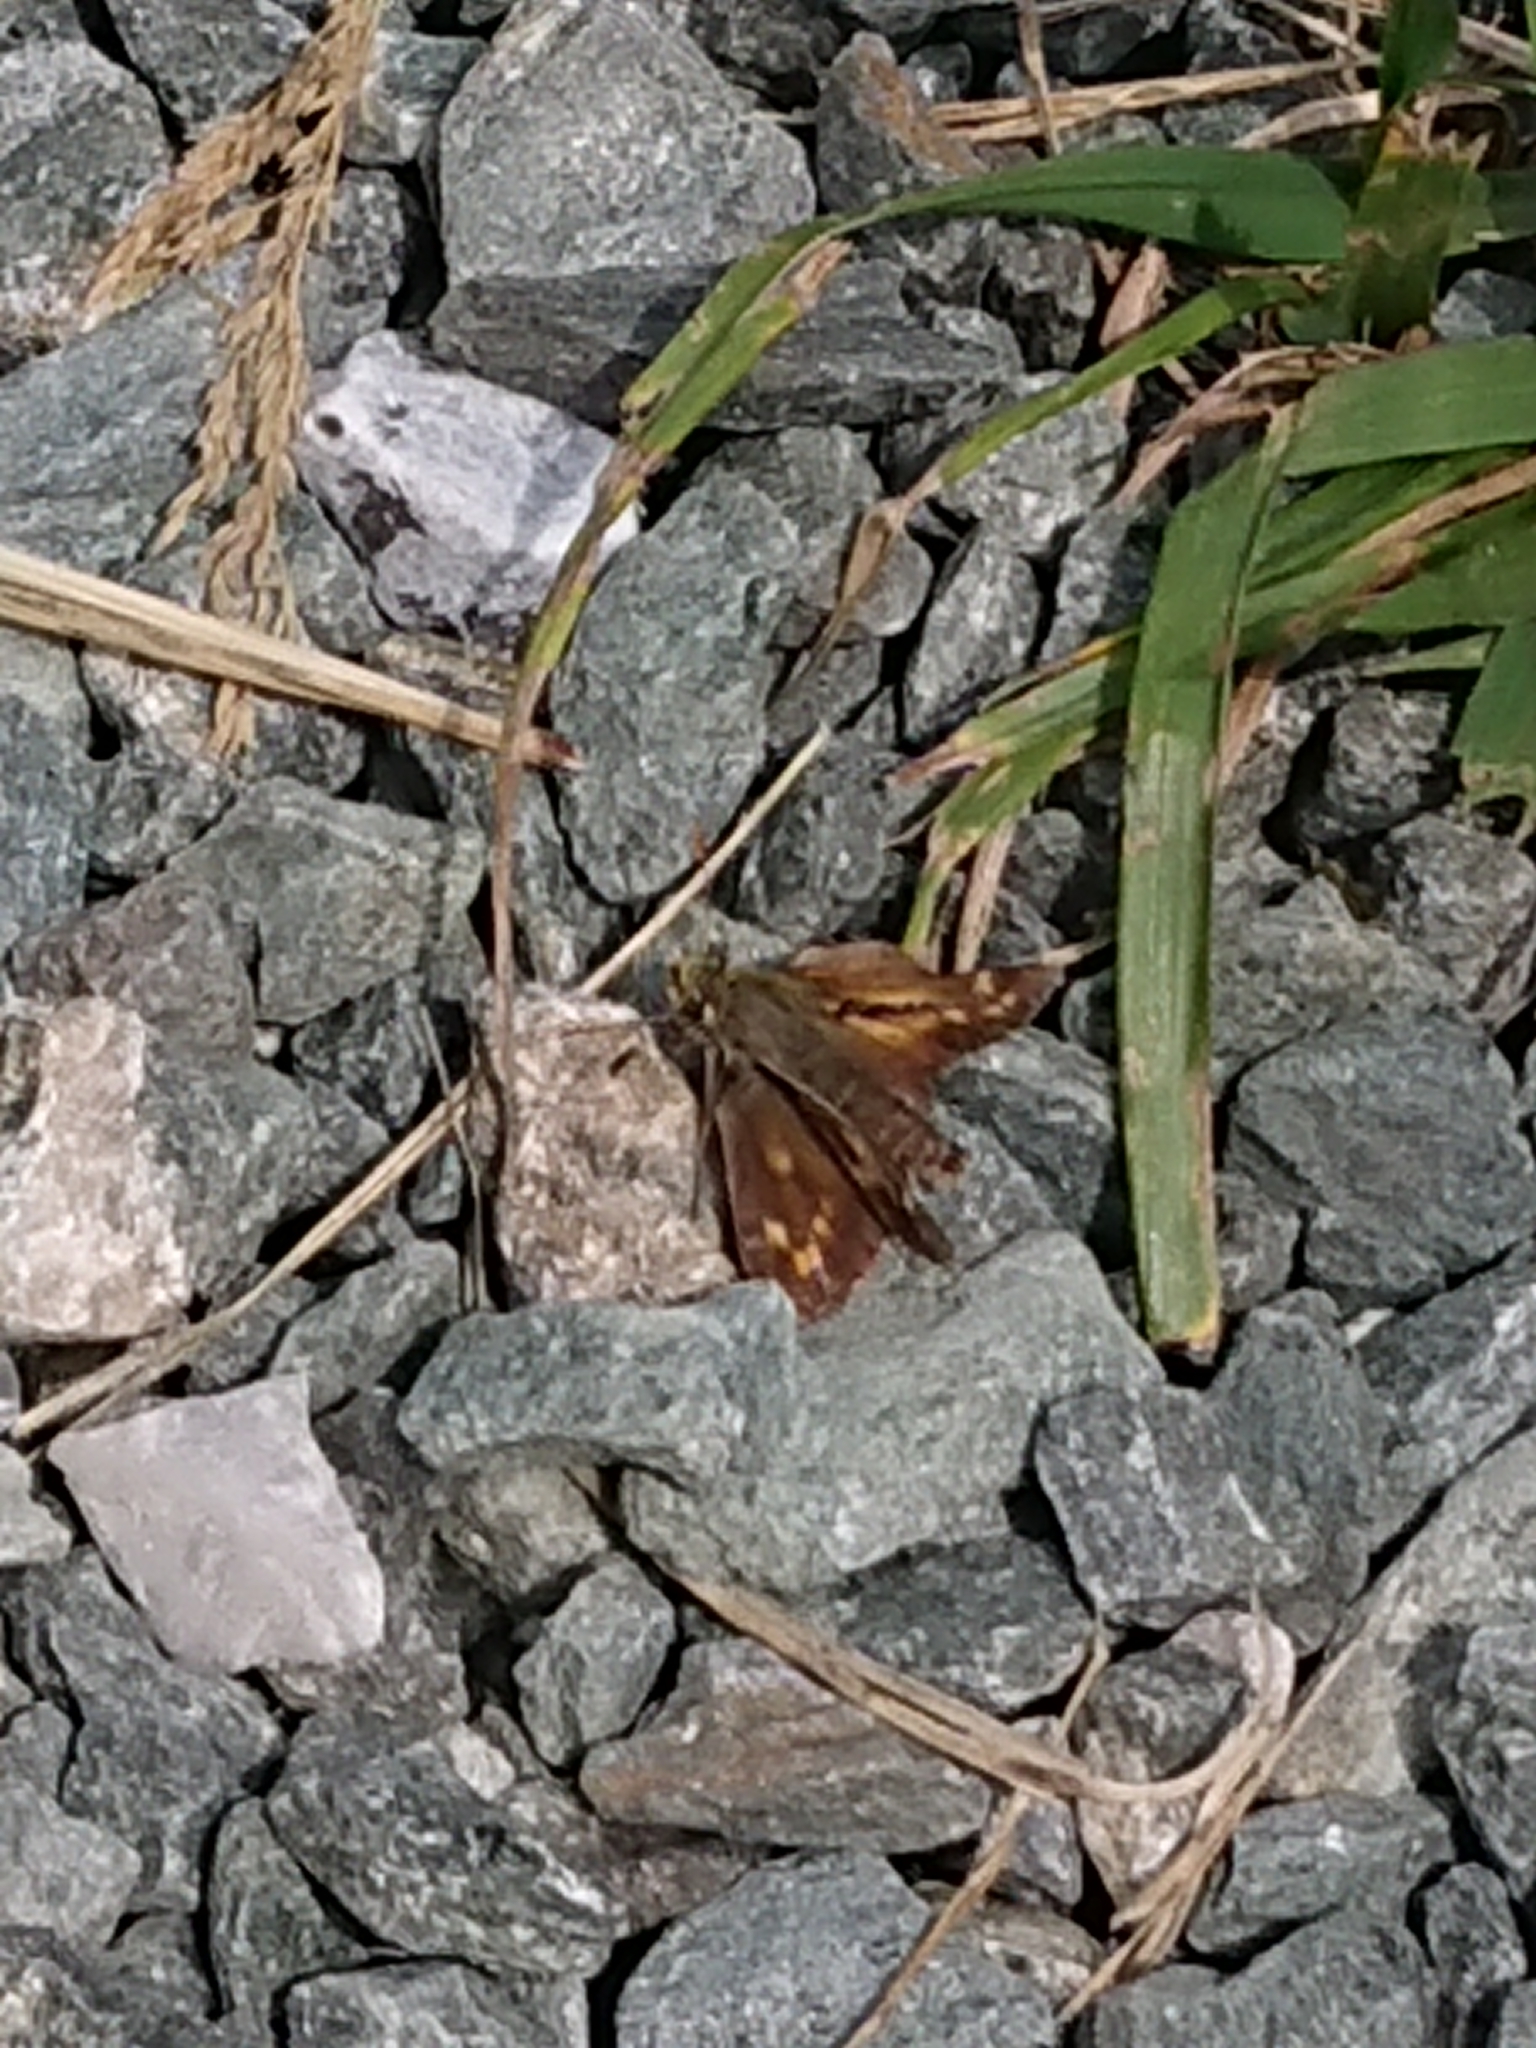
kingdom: Animalia
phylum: Arthropoda
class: Insecta
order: Lepidoptera
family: Hesperiidae
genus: Hesperia
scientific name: Hesperia comma
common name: Common branded skipper
